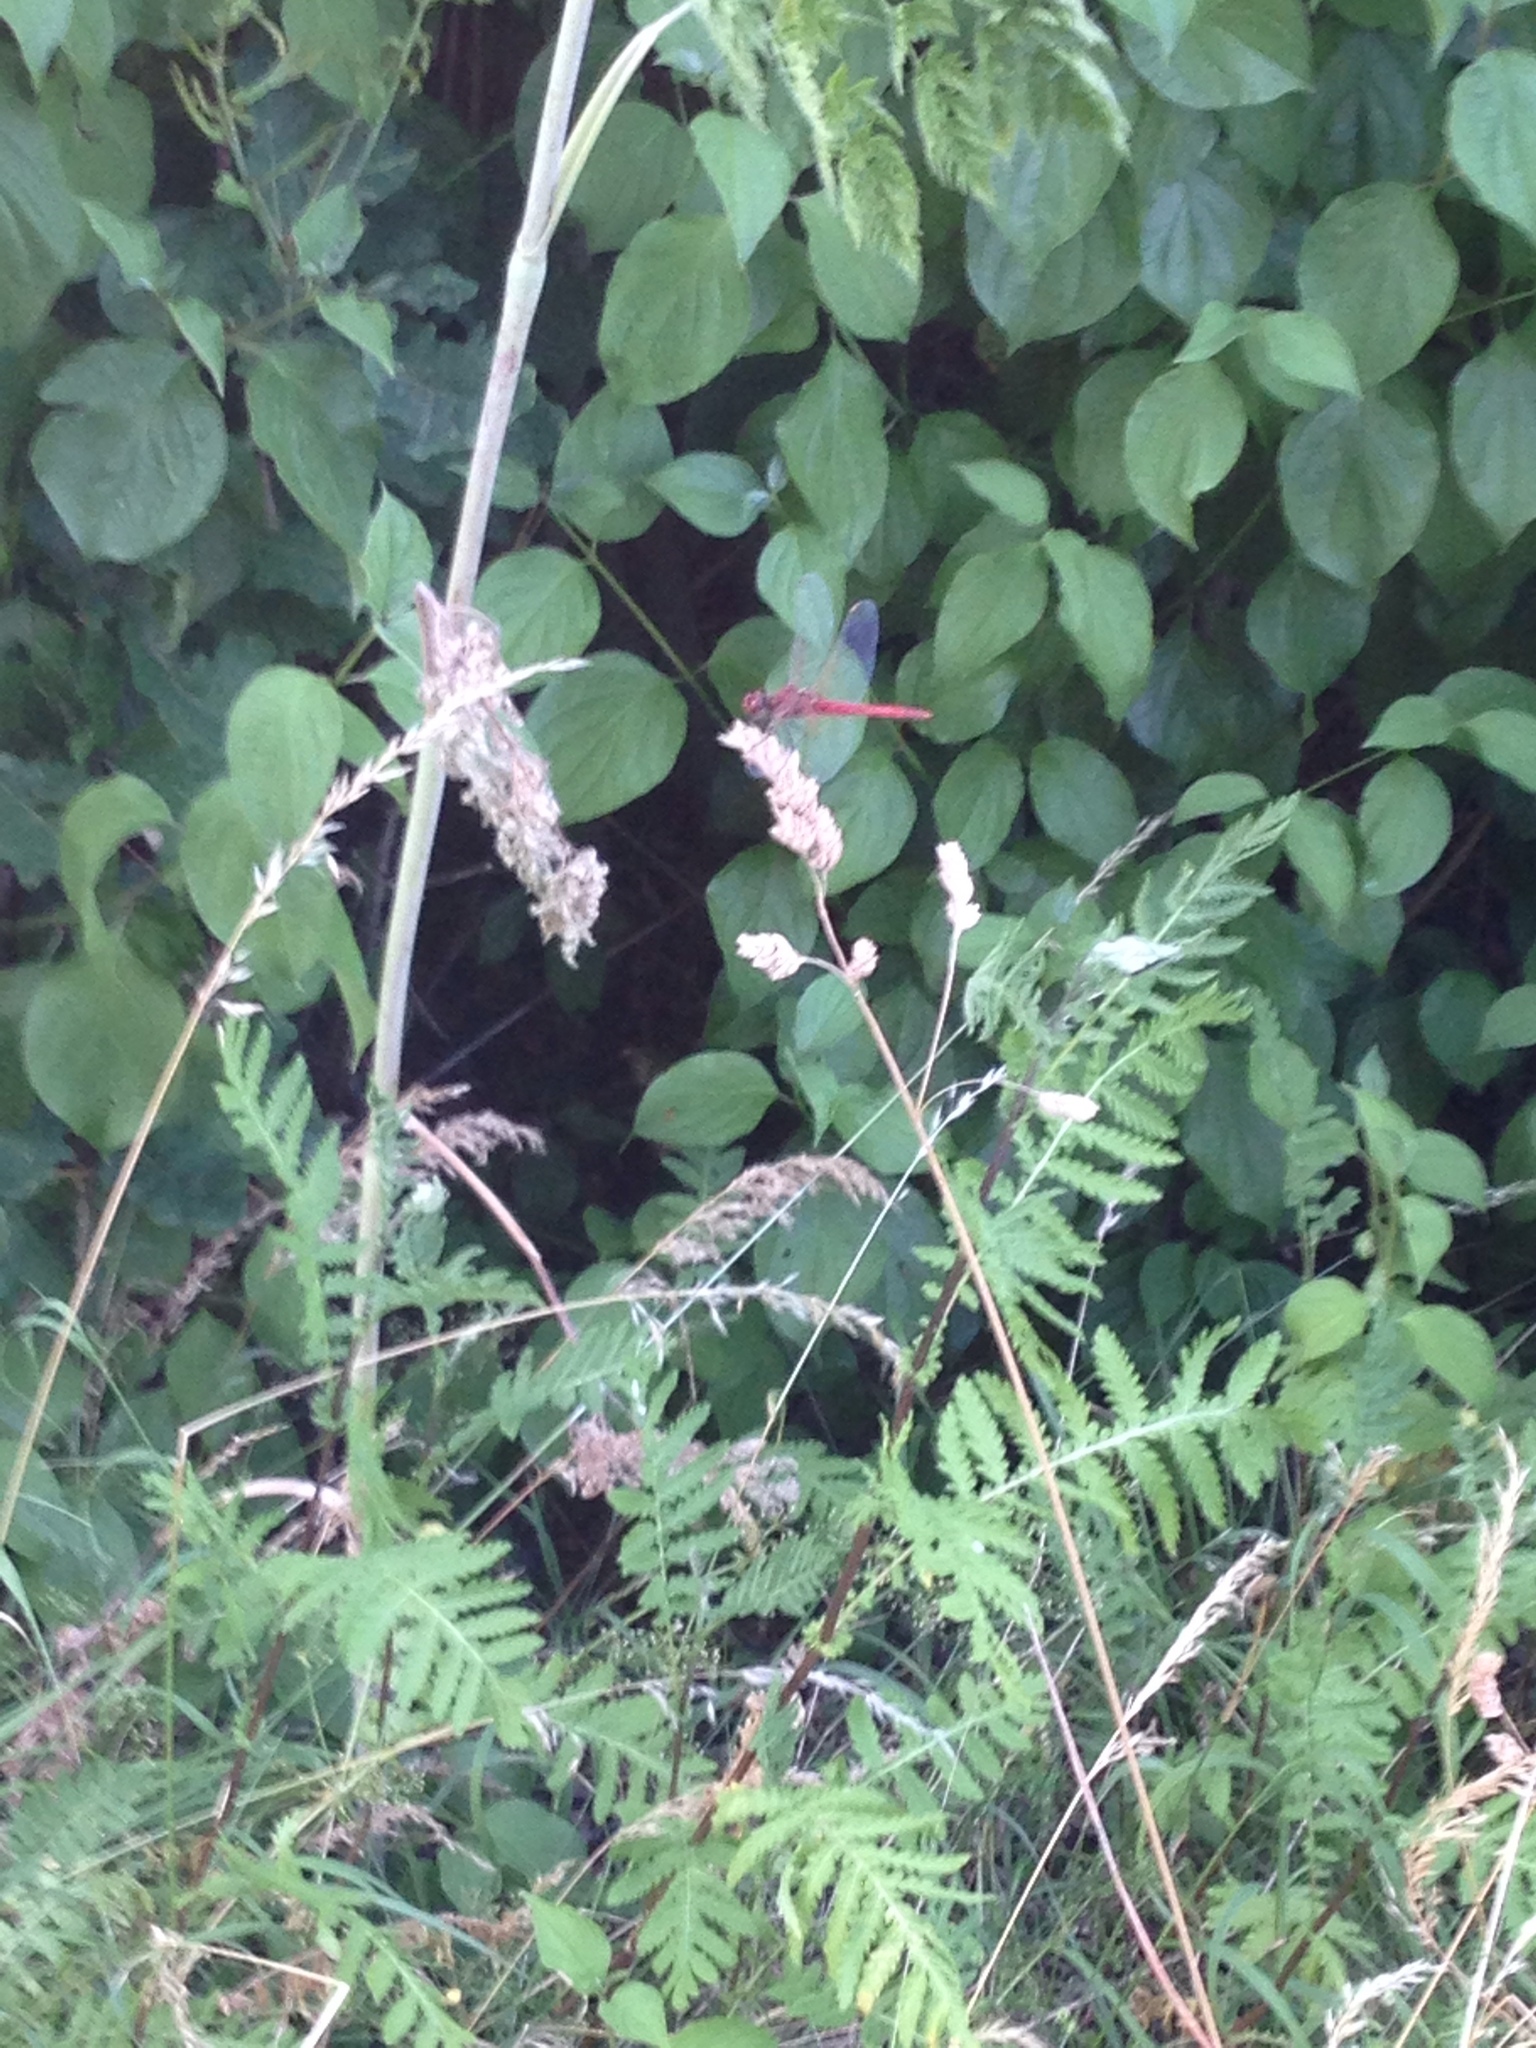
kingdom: Animalia
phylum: Arthropoda
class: Insecta
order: Odonata
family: Libellulidae
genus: Sympetrum
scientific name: Sympetrum fonscolombii
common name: Red-veined darter
